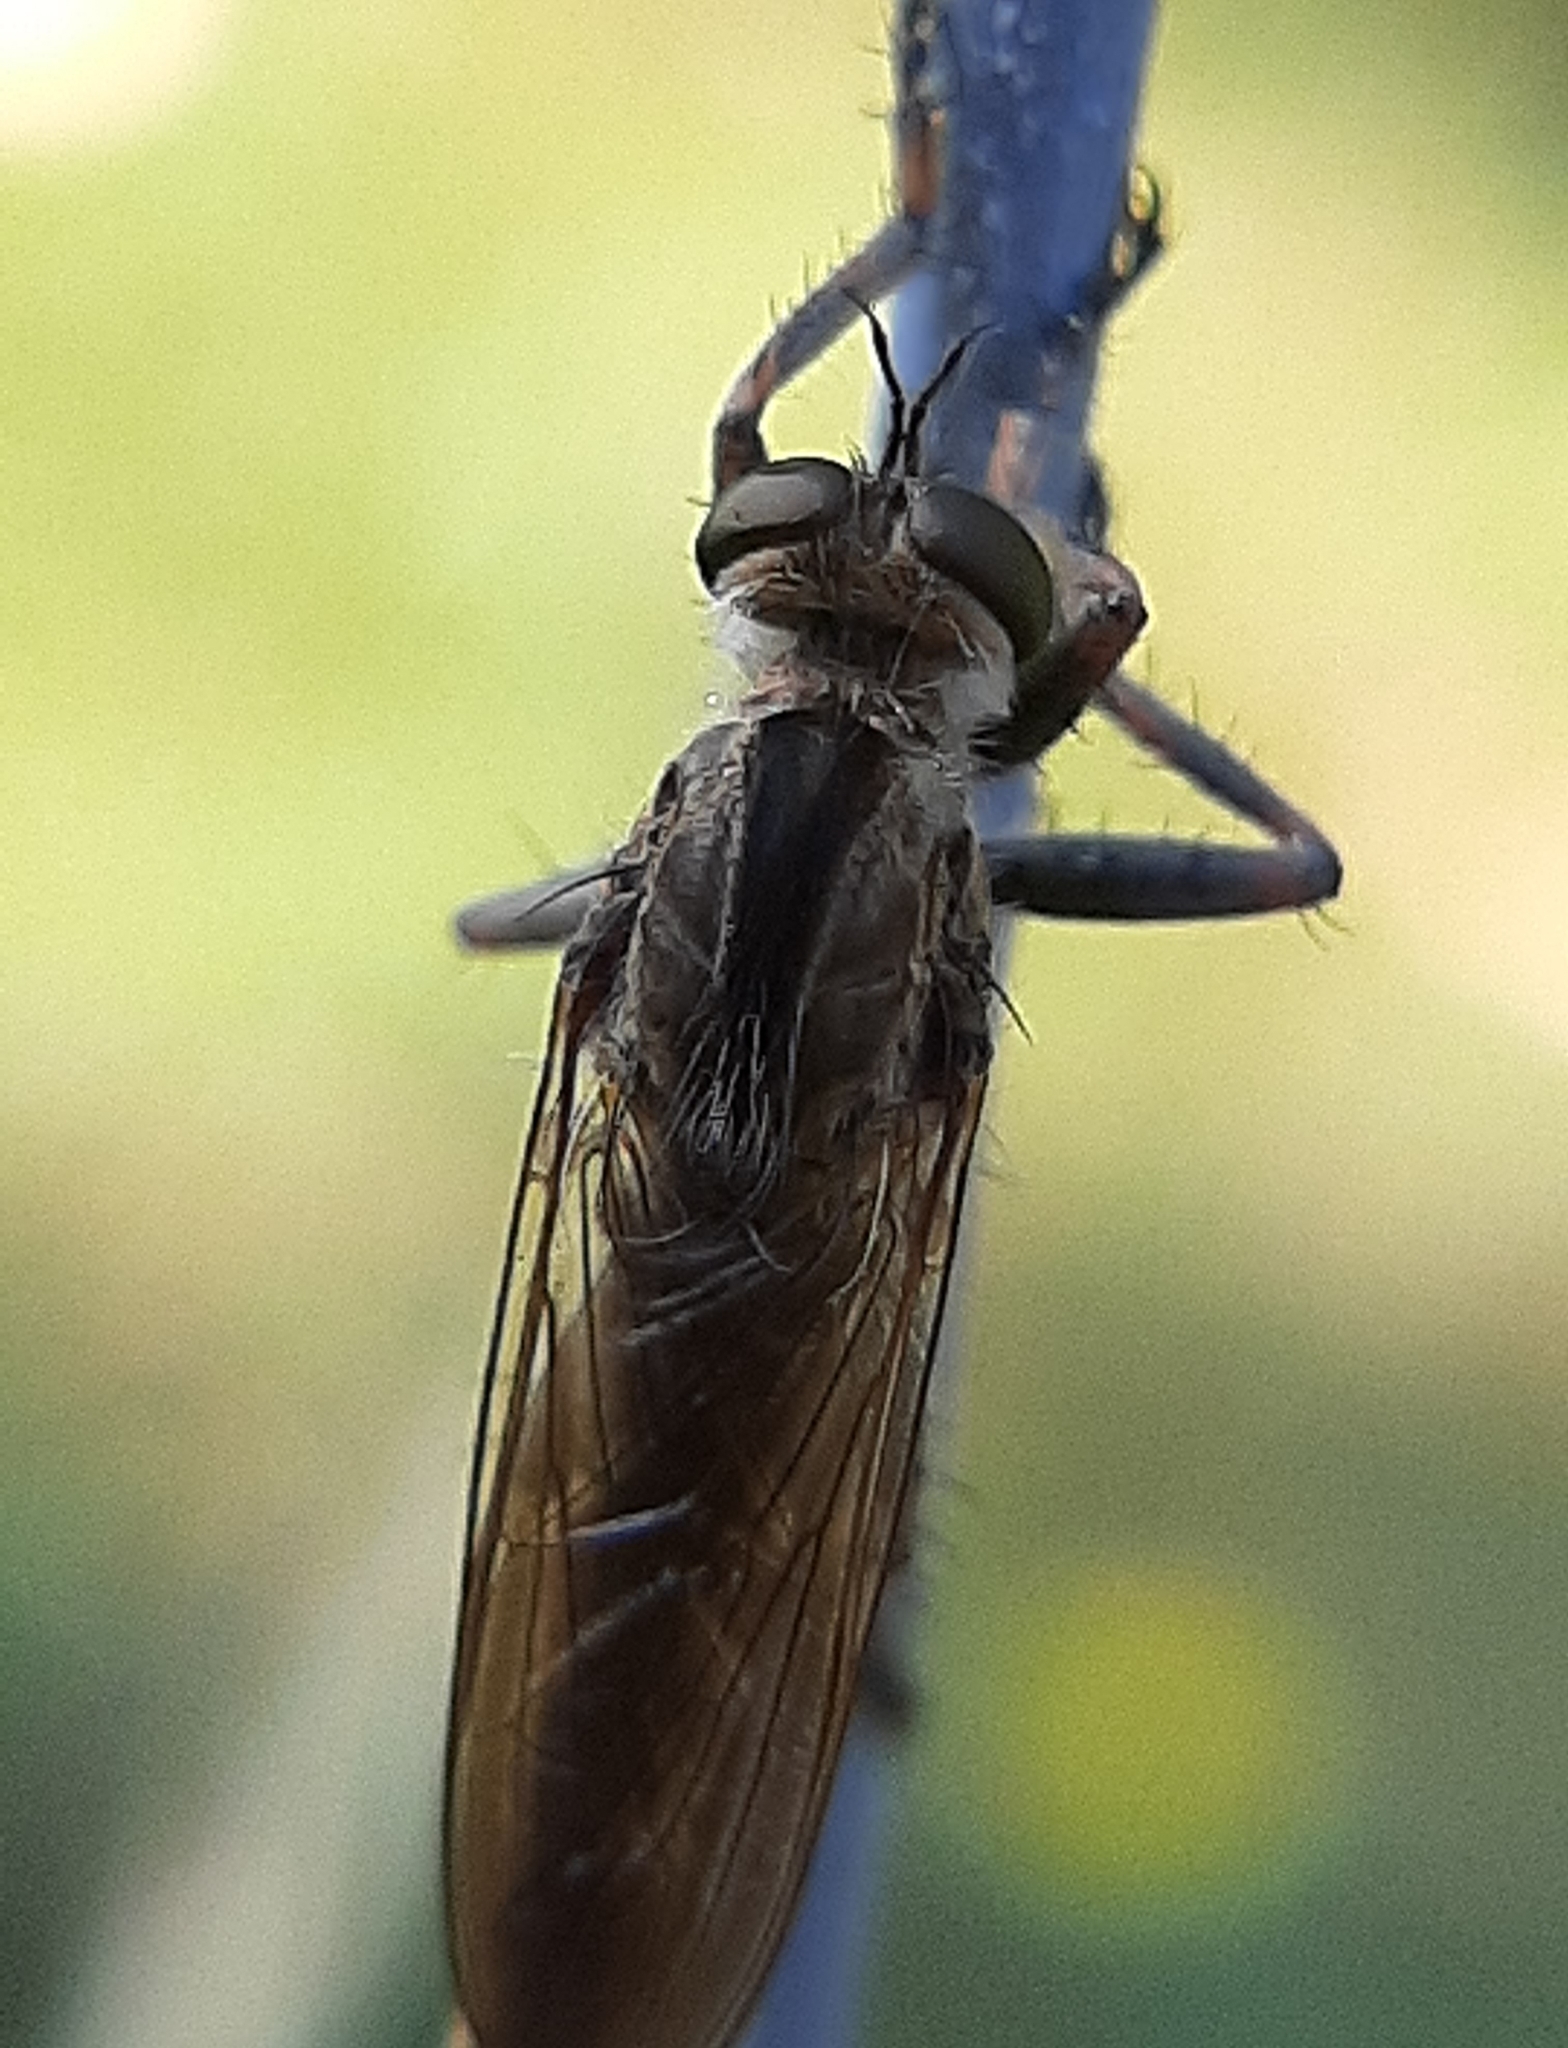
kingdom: Animalia
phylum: Arthropoda
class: Insecta
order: Diptera
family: Asilidae
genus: Machimus
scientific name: Machimus snowii
